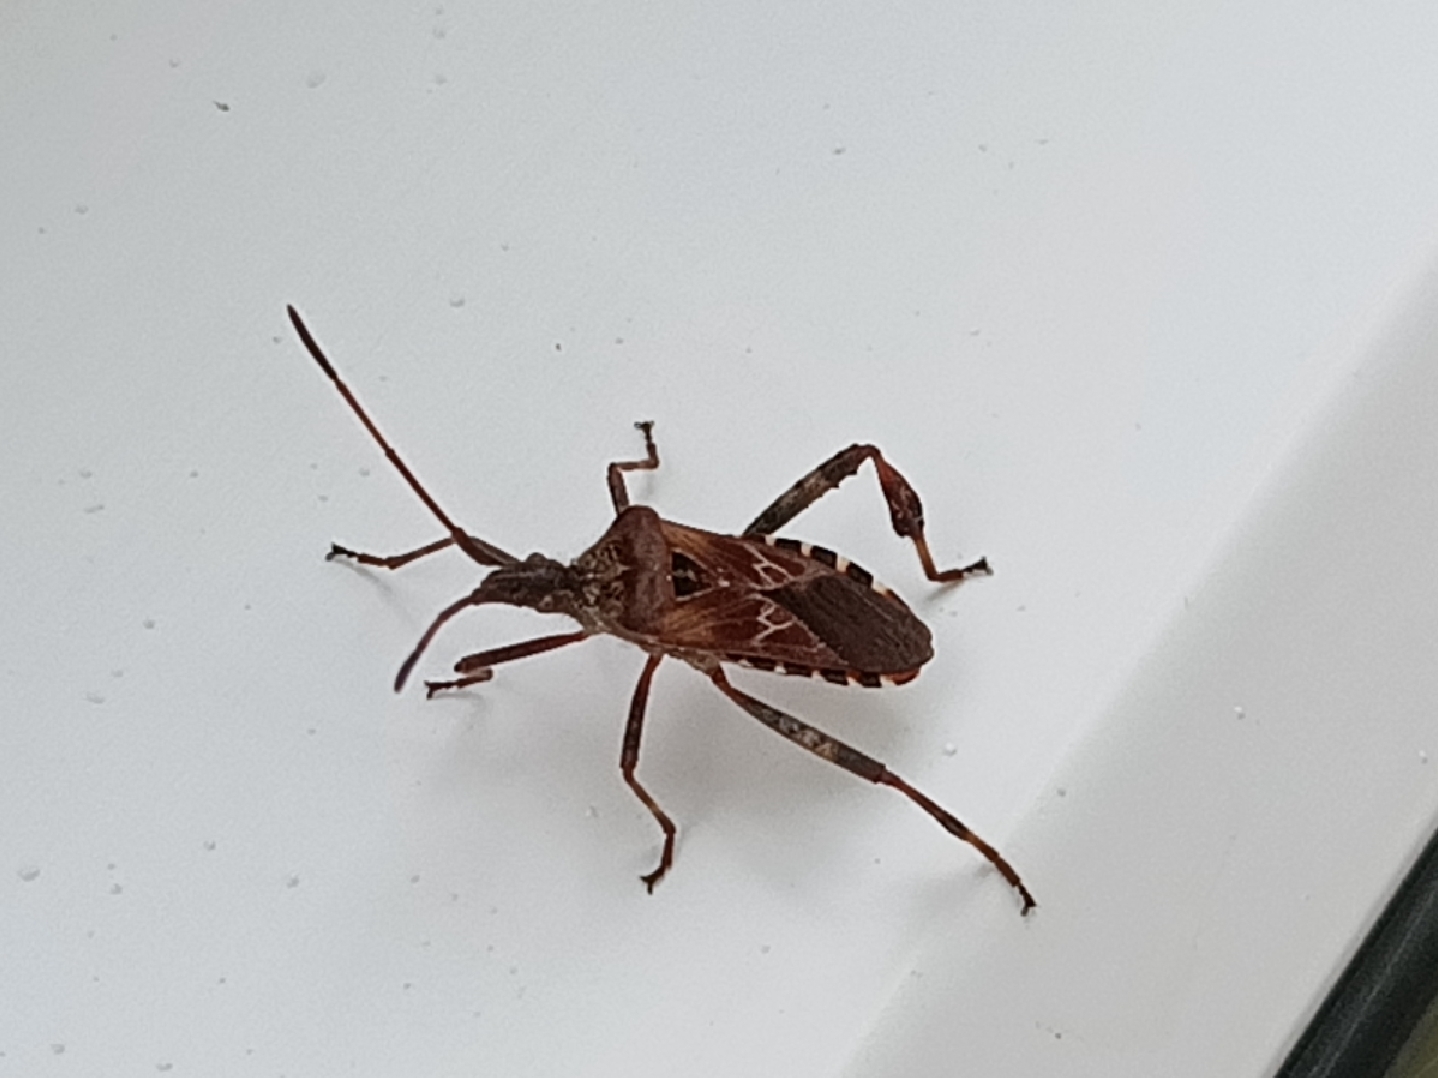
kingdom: Animalia
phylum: Arthropoda
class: Insecta
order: Hemiptera
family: Coreidae
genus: Leptoglossus
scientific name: Leptoglossus occidentalis
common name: Western conifer-seed bug
